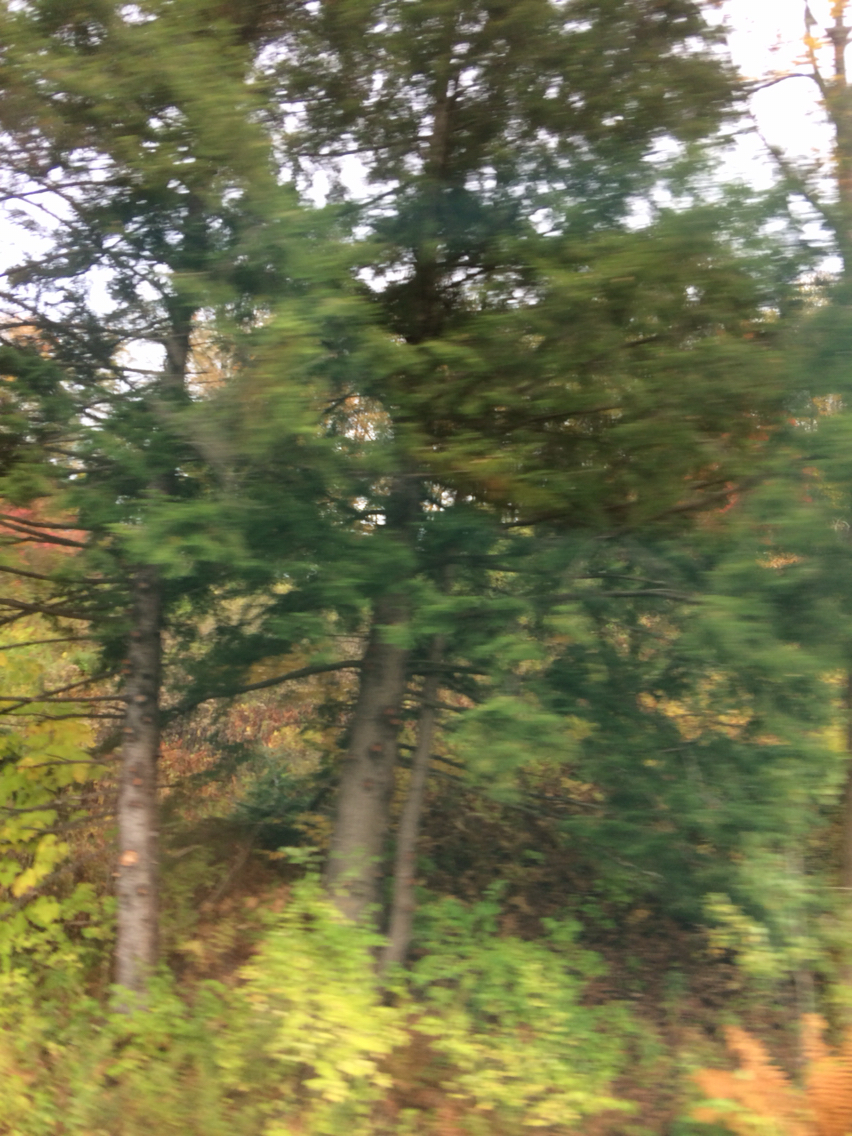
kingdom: Plantae
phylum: Tracheophyta
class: Pinopsida
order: Pinales
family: Pinaceae
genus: Tsuga
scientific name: Tsuga canadensis
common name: Eastern hemlock
